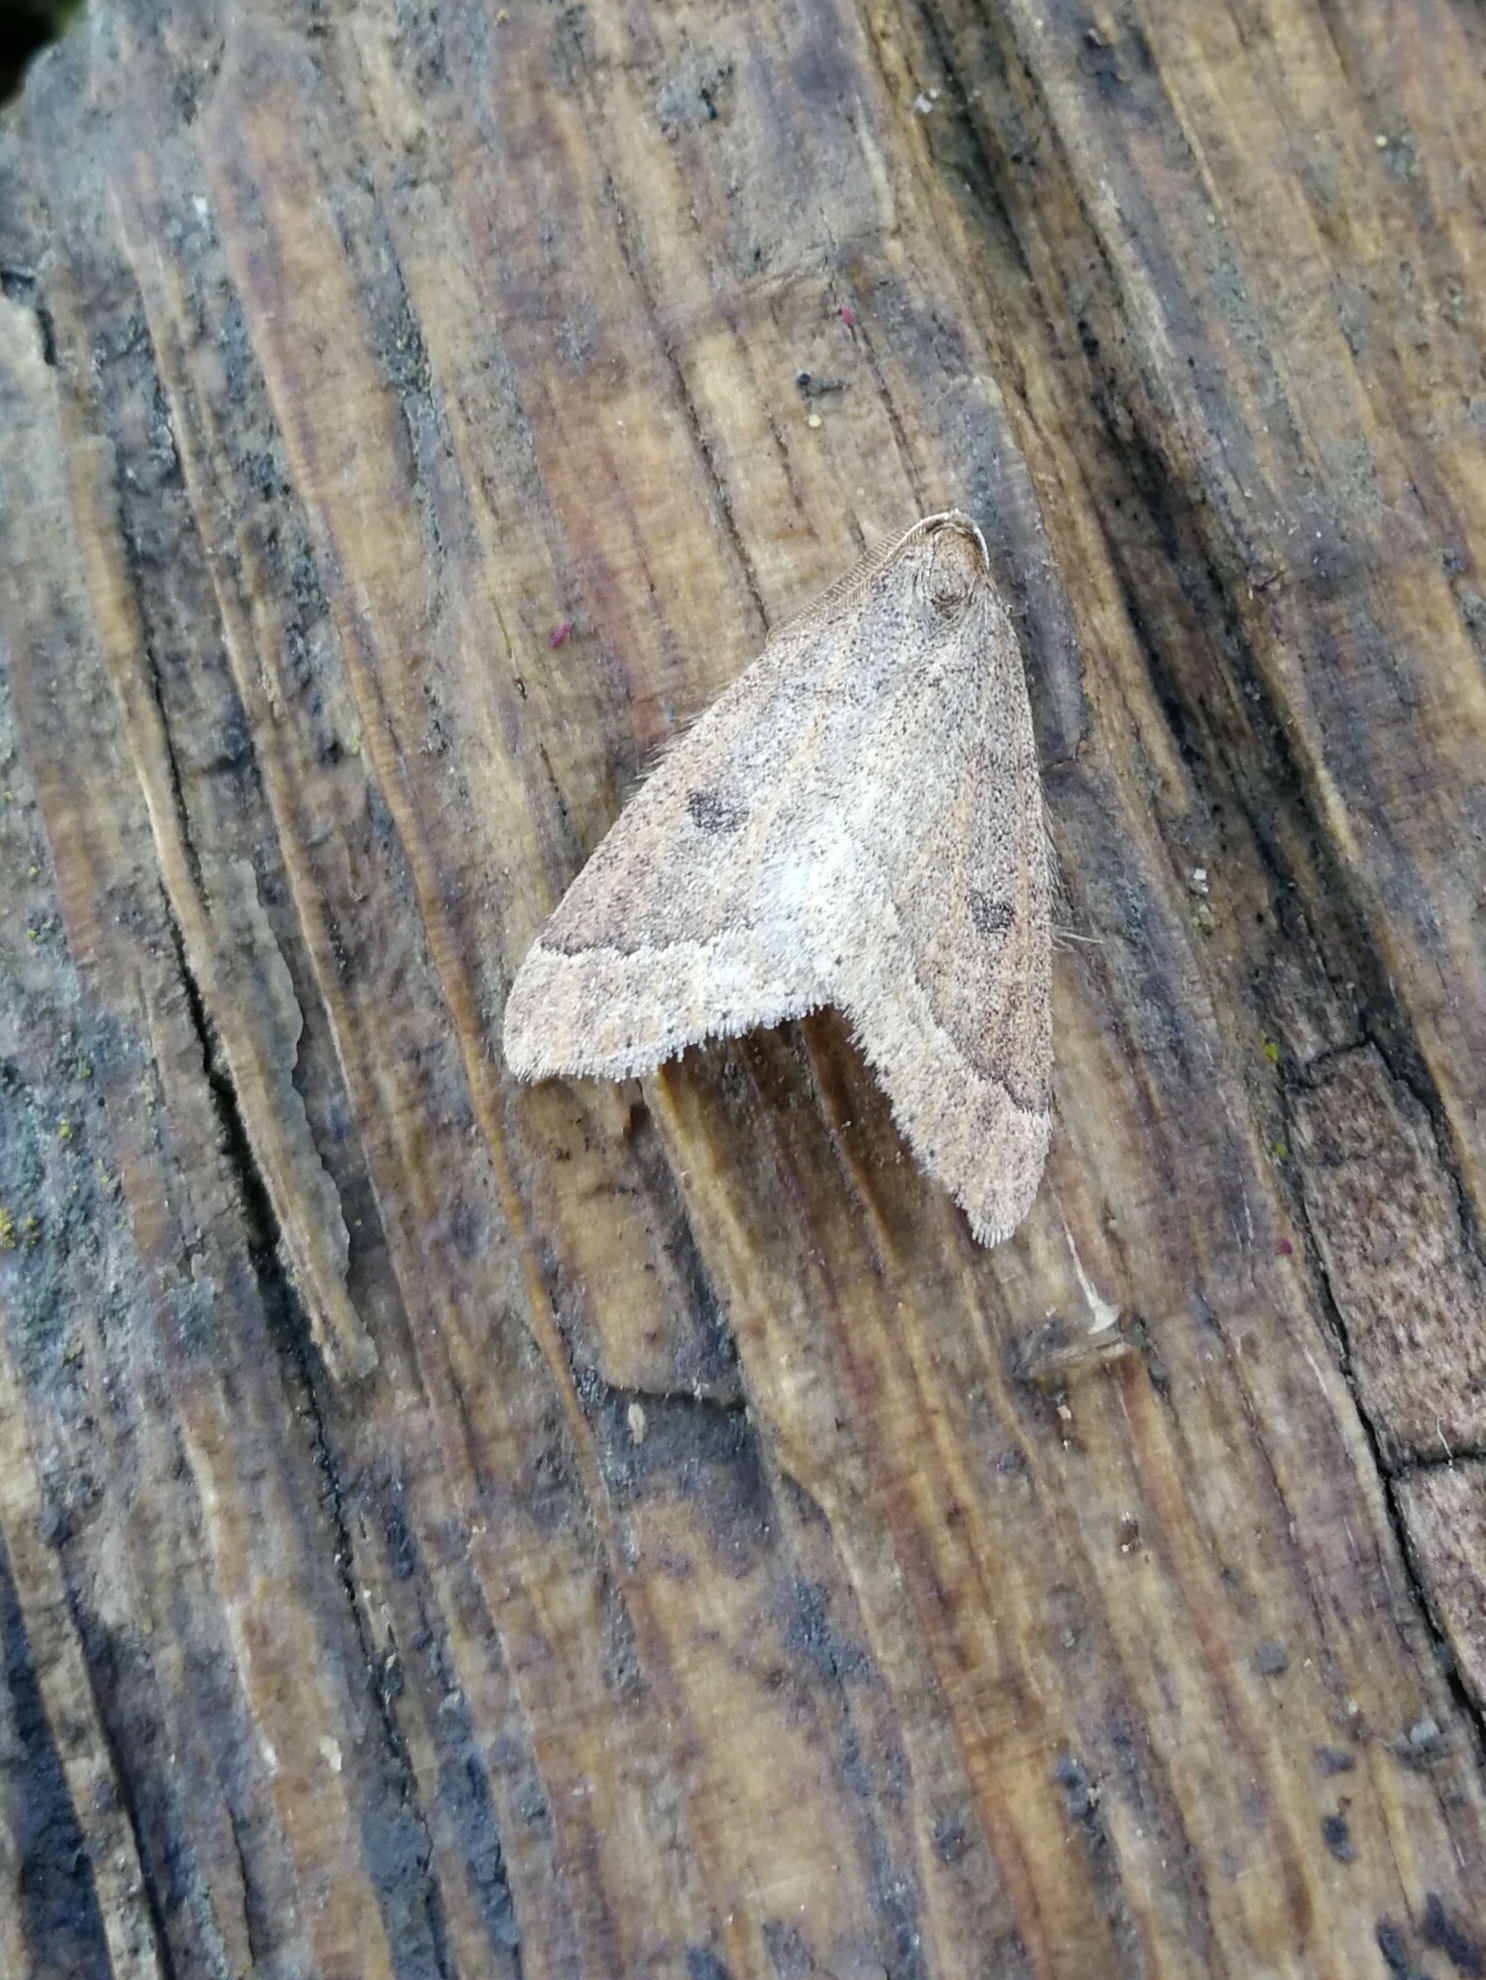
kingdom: Animalia
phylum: Arthropoda
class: Insecta
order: Lepidoptera
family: Geometridae
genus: Theria
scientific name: Theria primaria
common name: Early moth
